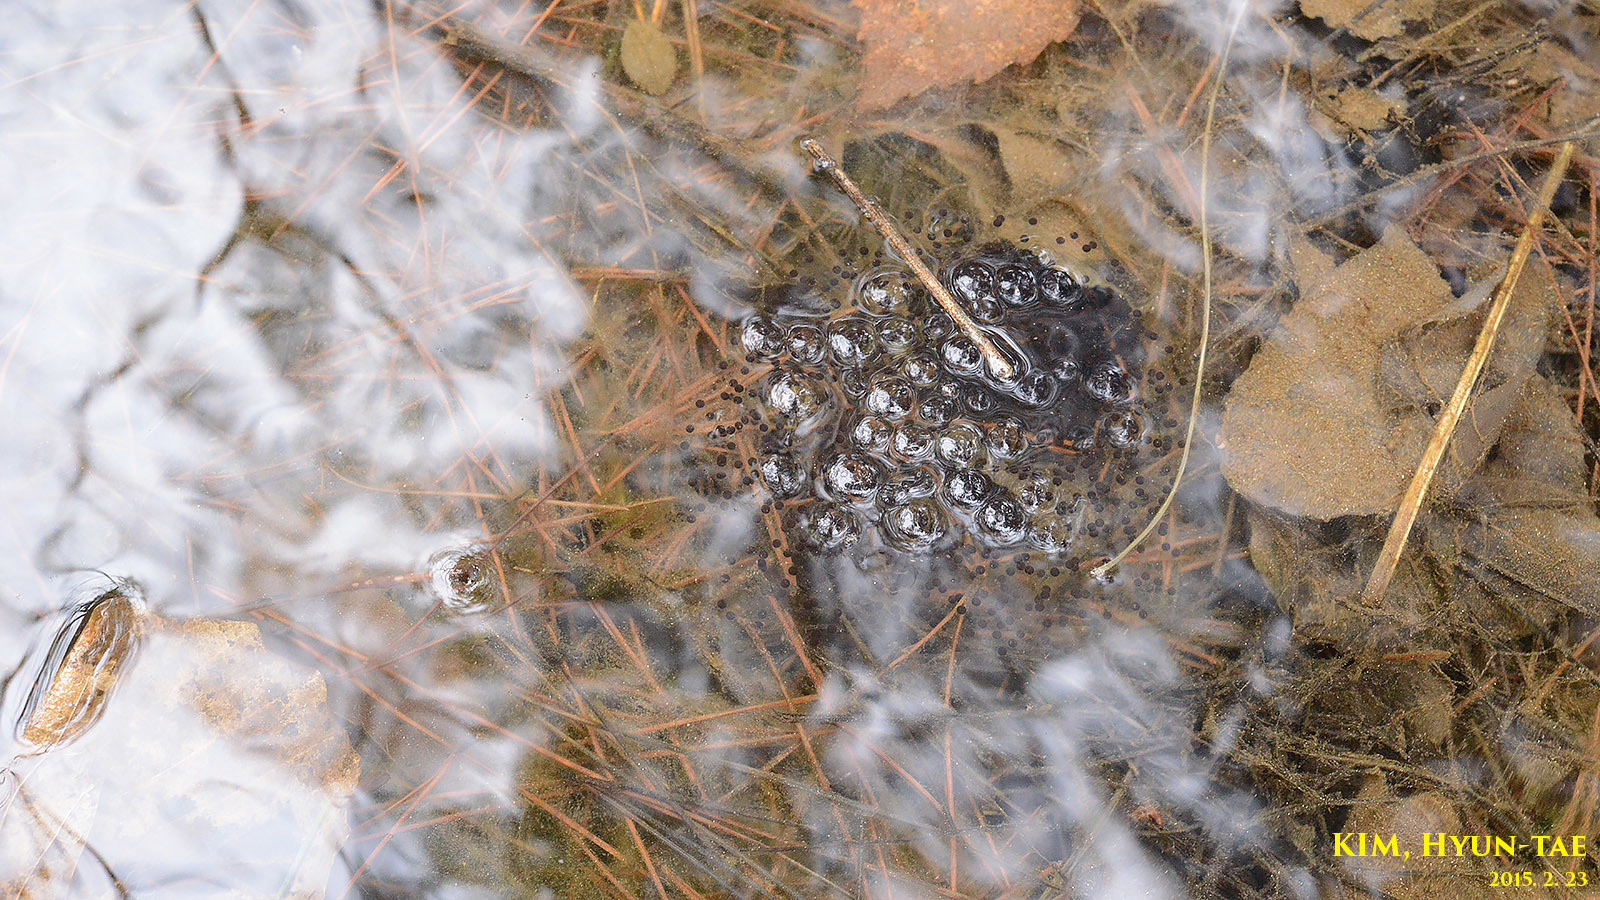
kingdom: Animalia
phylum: Chordata
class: Amphibia
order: Anura
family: Ranidae
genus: Rana
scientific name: Rana uenoi
